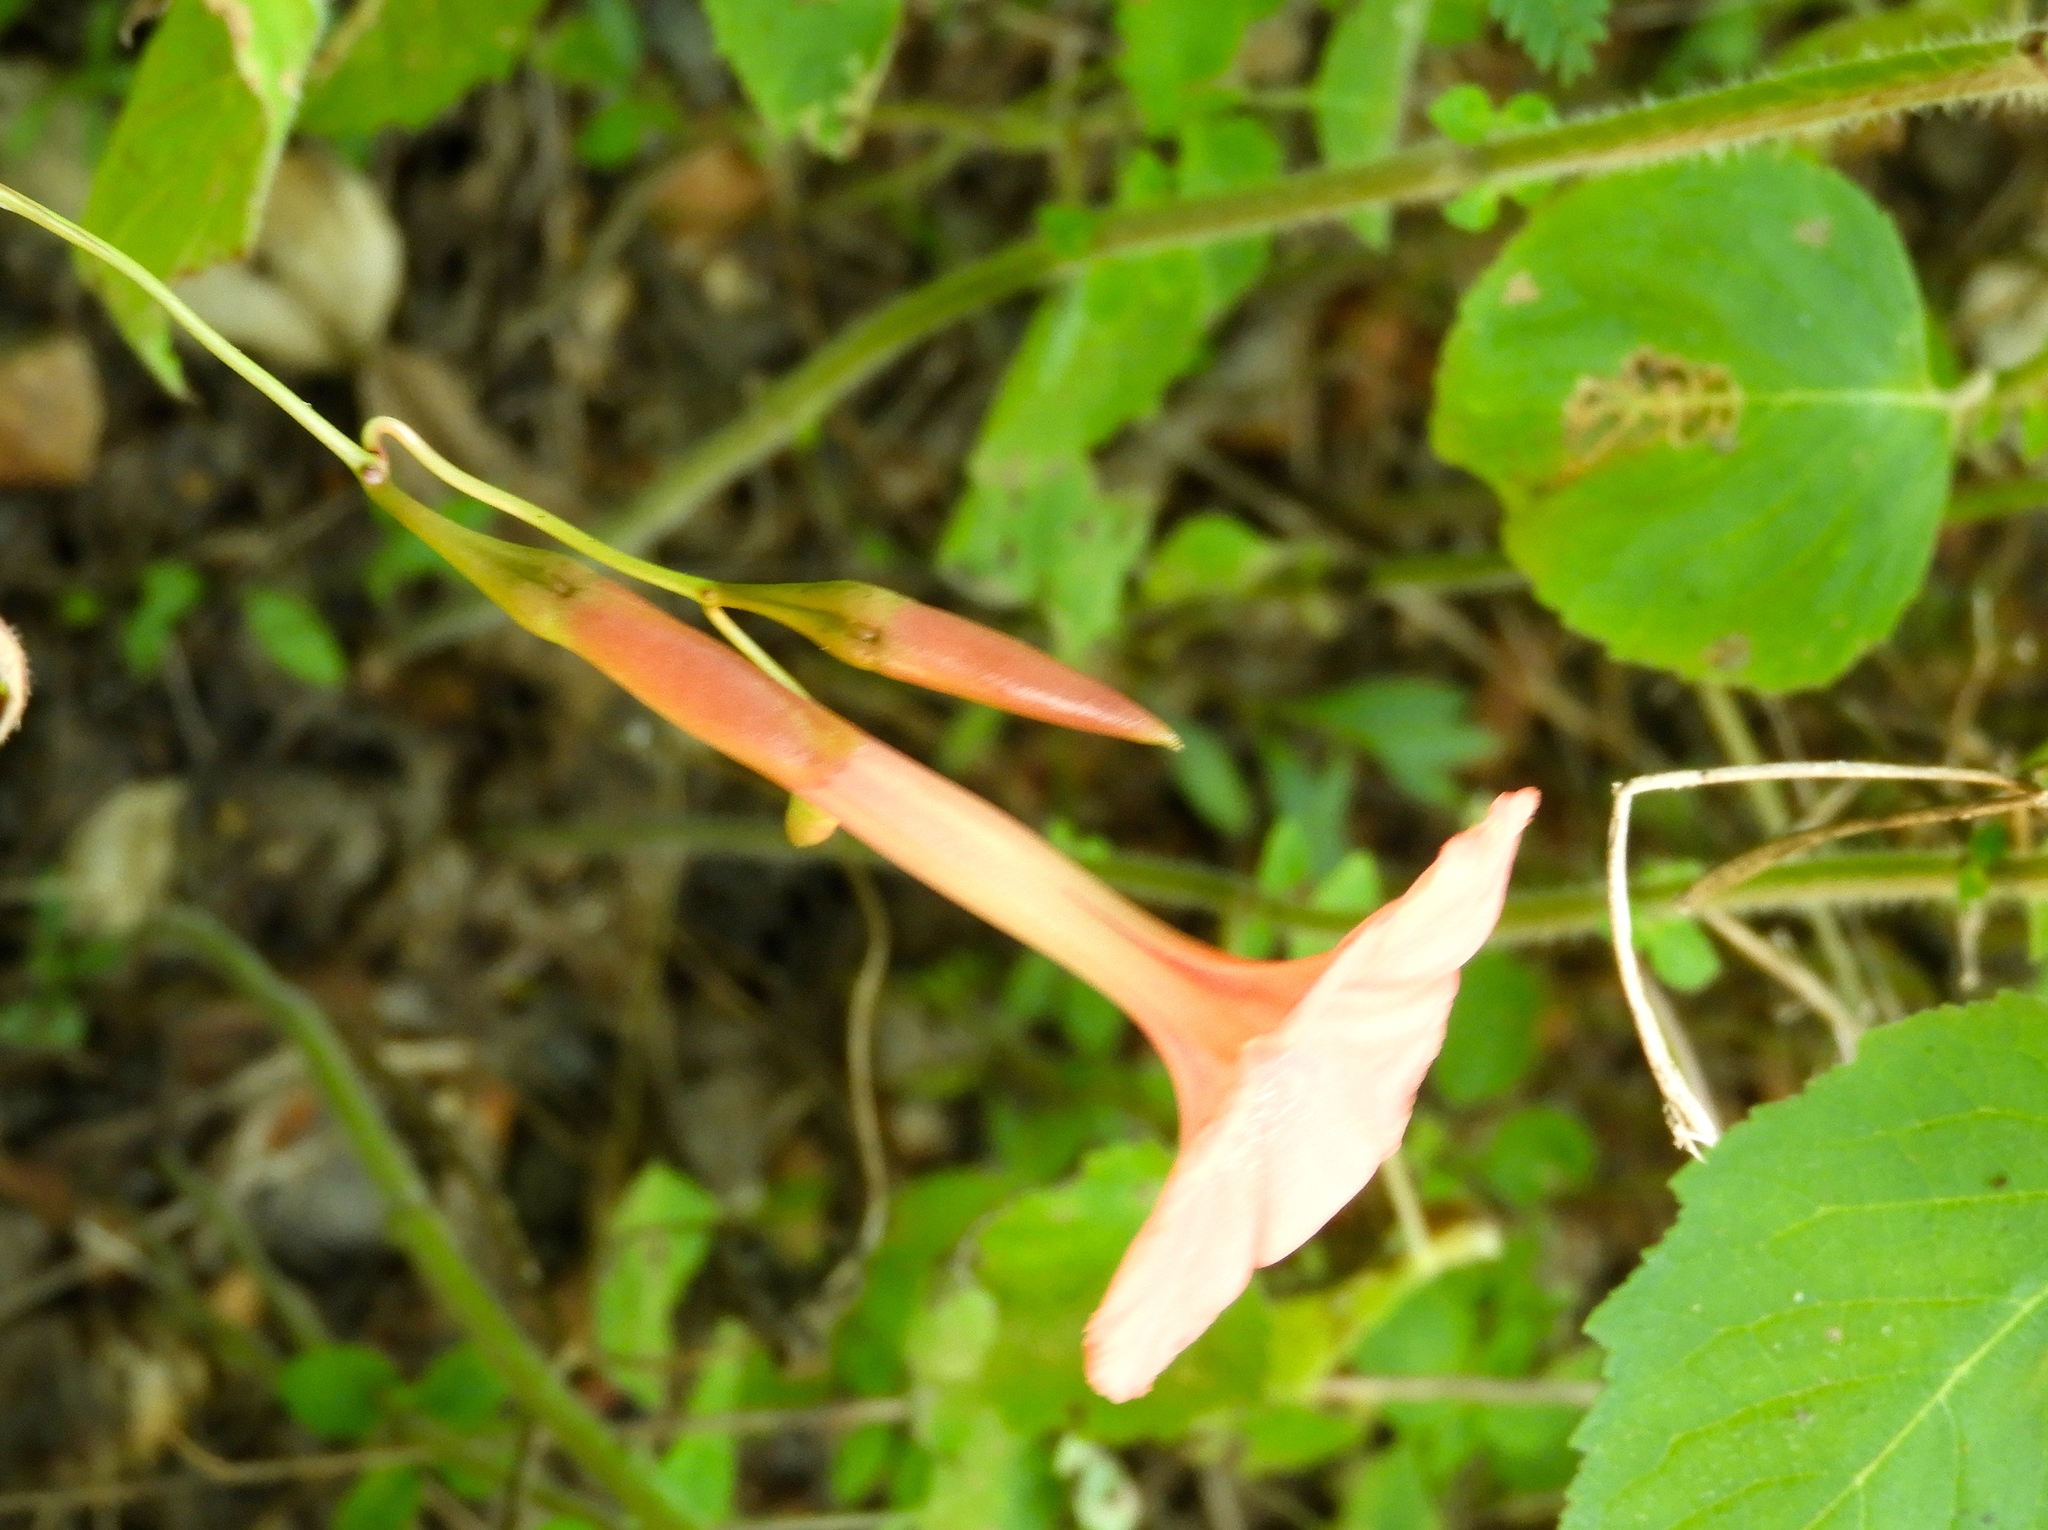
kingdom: Plantae
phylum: Tracheophyta
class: Magnoliopsida
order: Solanales
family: Convolvulaceae
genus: Operculina
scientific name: Operculina pteripes
